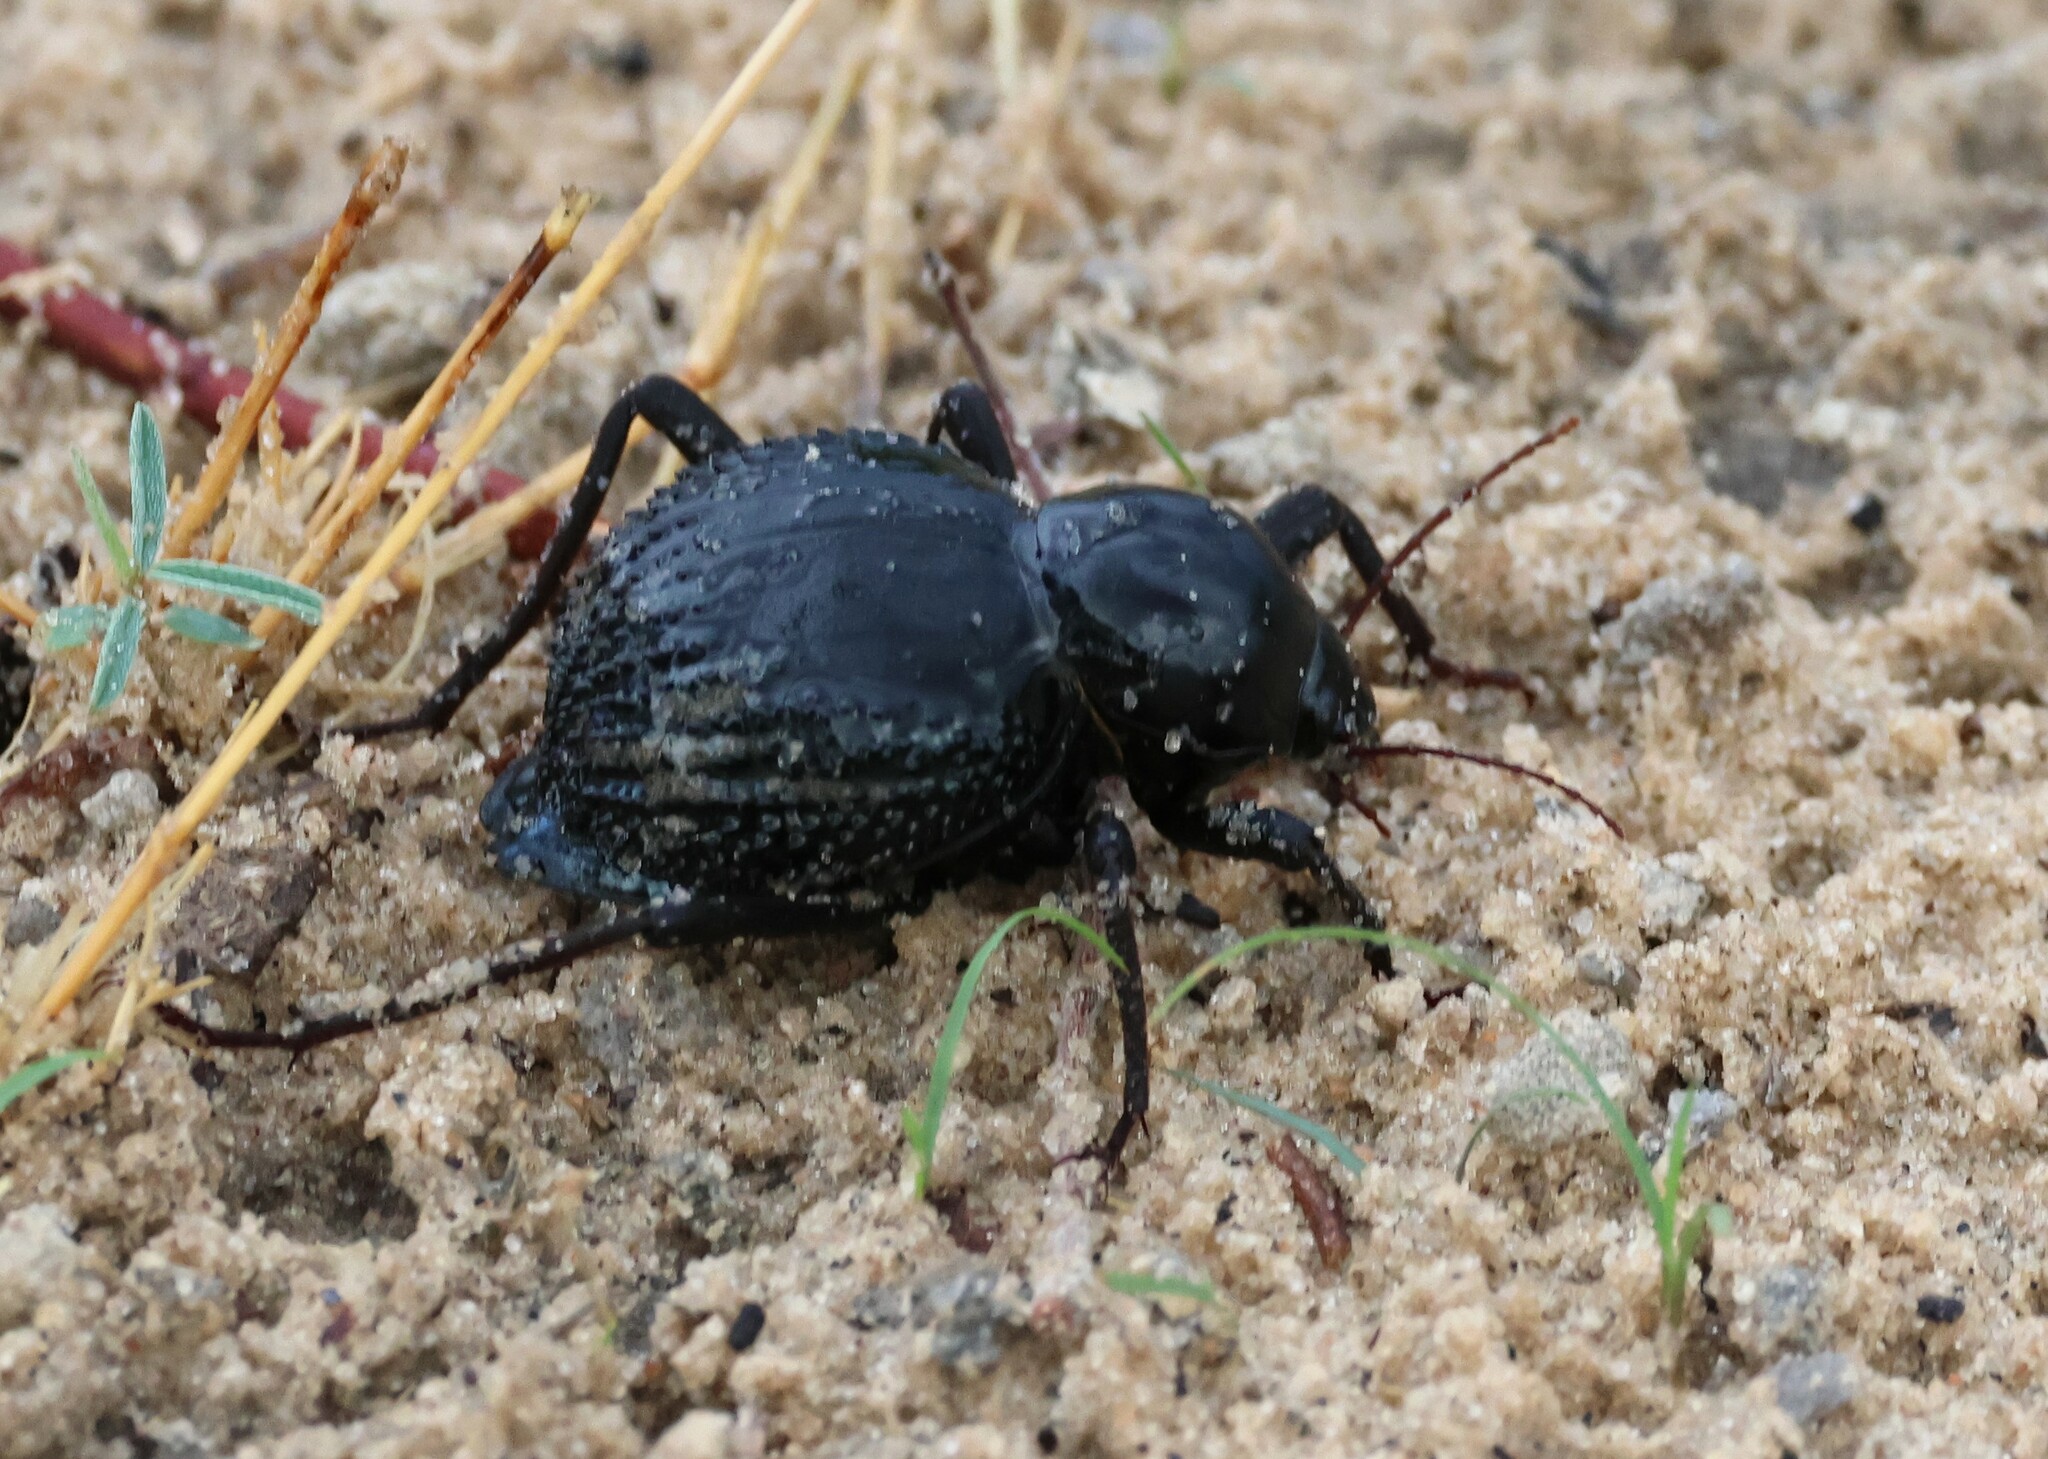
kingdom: Animalia
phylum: Arthropoda
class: Insecta
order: Coleoptera
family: Tenebrionidae
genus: Psammodes
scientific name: Psammodes vialis
